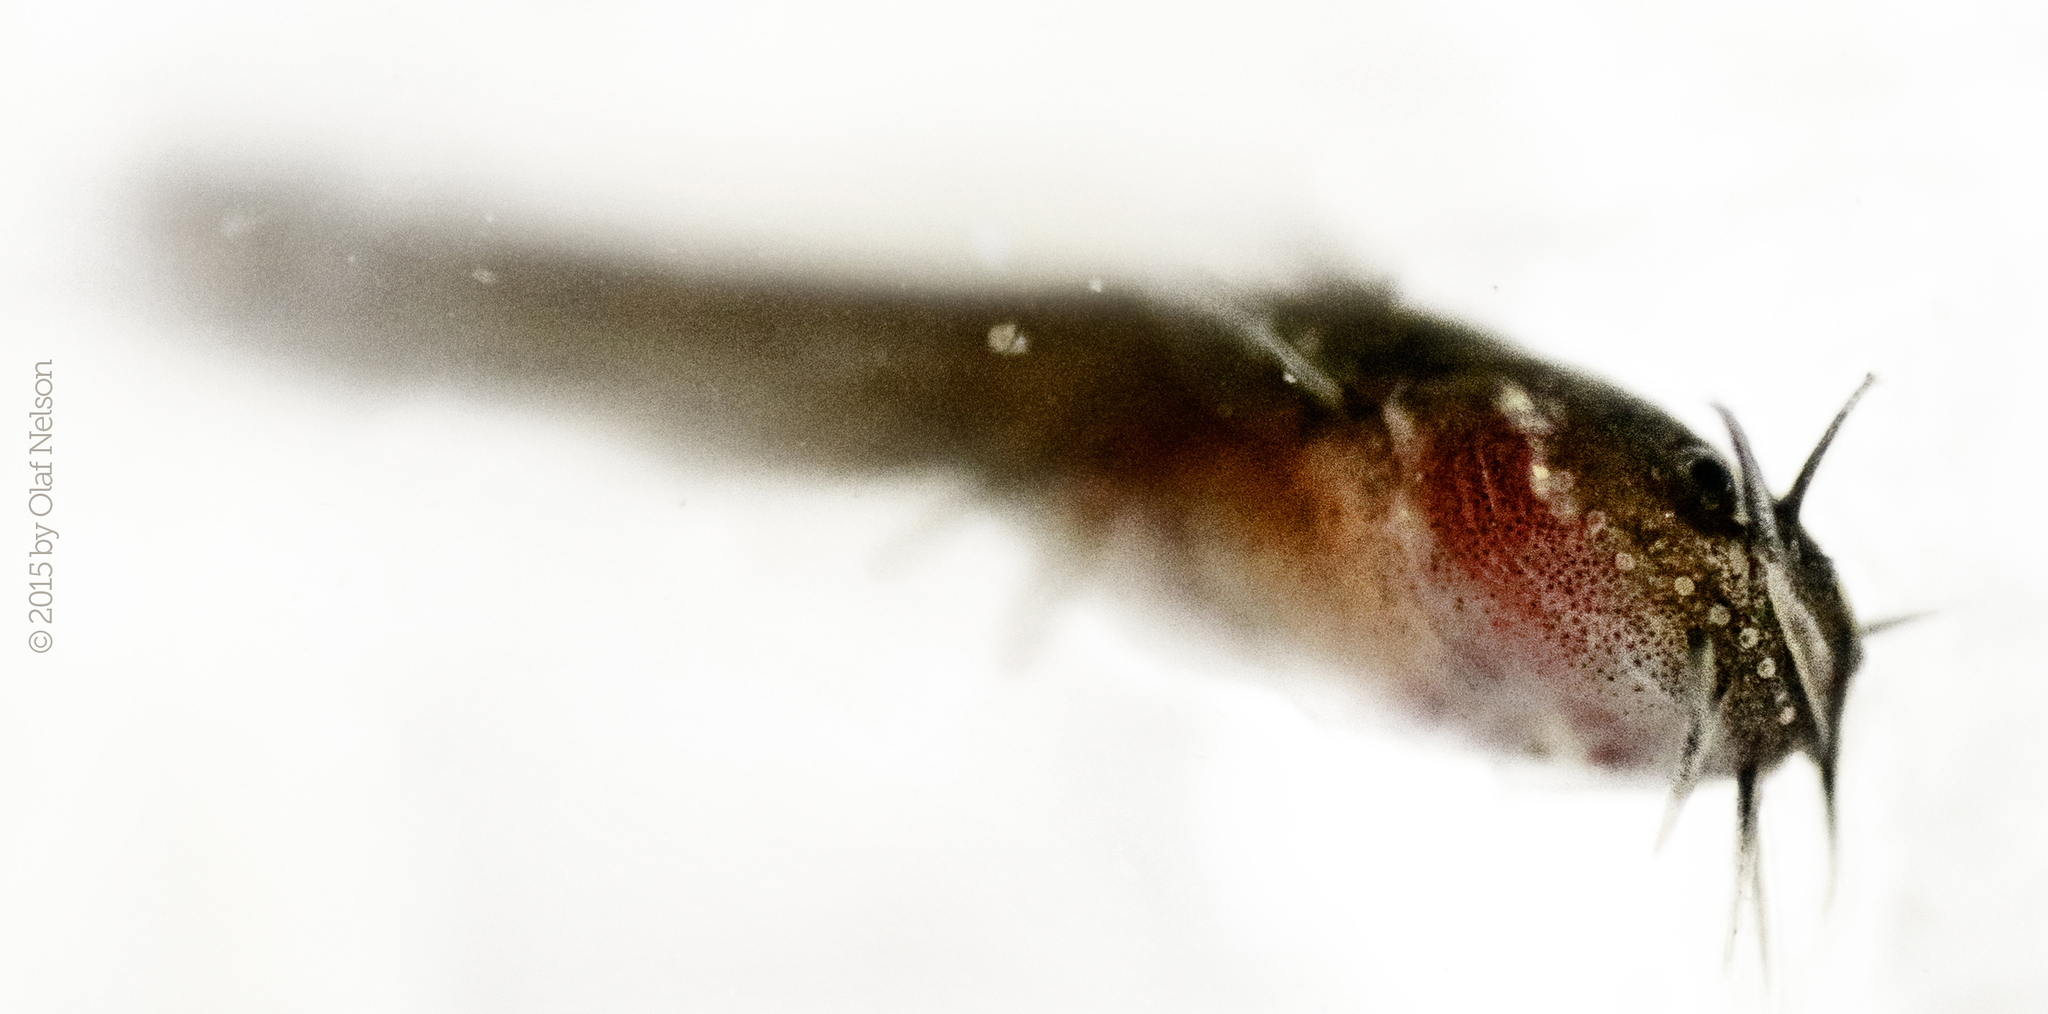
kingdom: Animalia
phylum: Chordata
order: Siluriformes
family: Ictaluridae
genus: Noturus
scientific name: Noturus gyrinus
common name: Tadpole madtom
